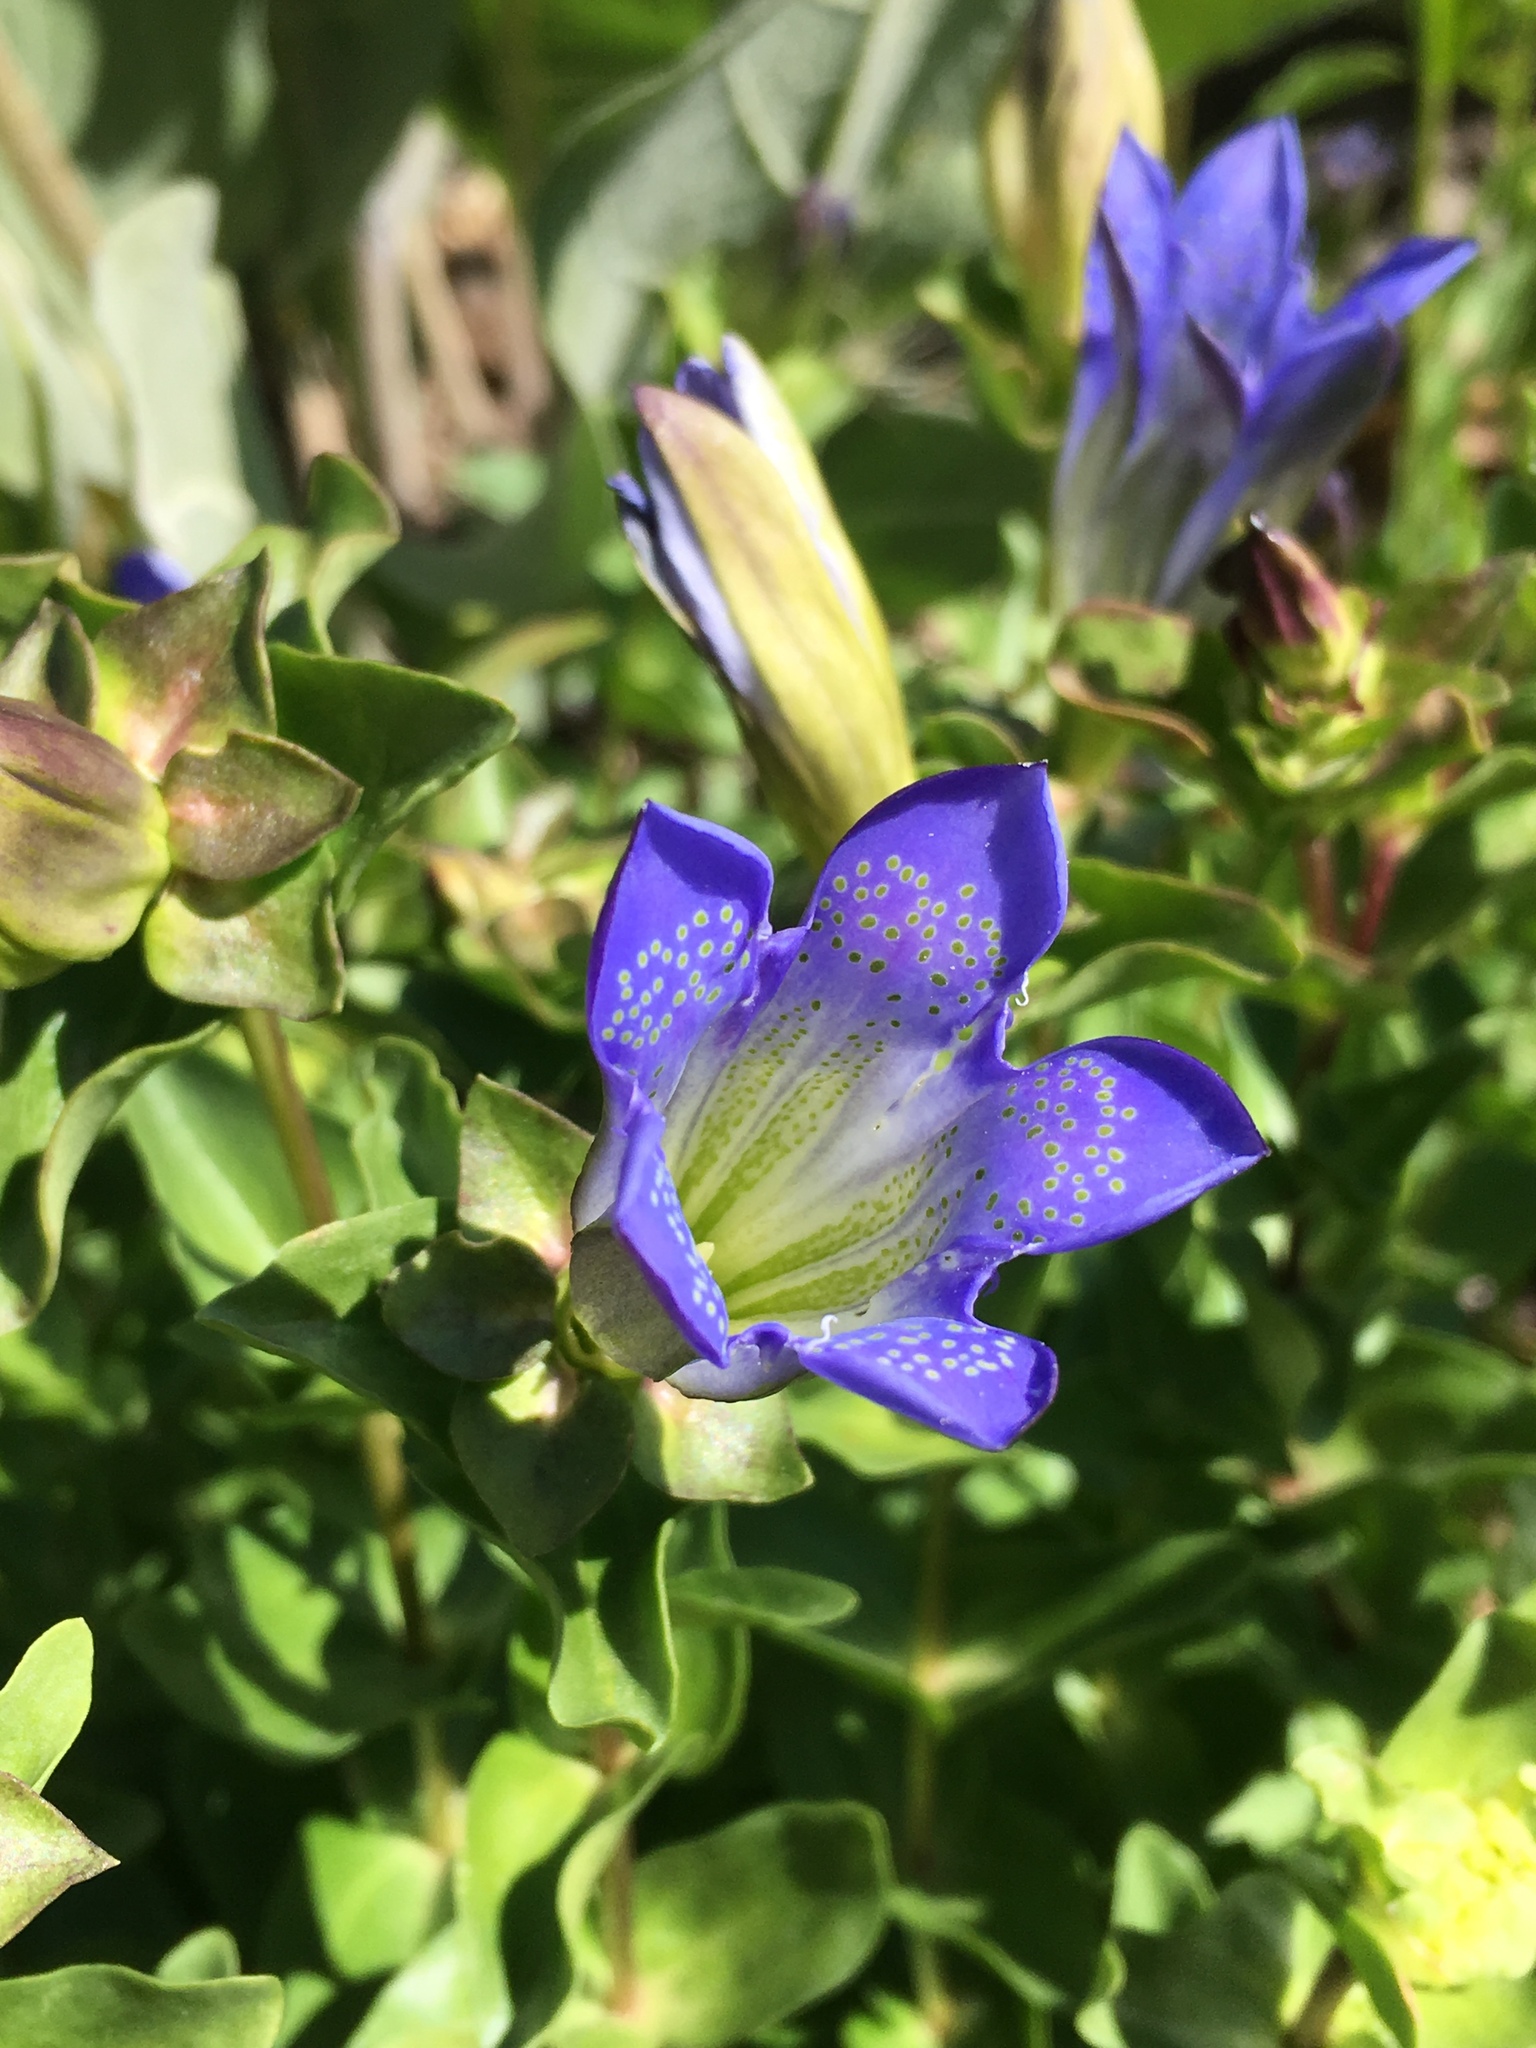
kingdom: Plantae
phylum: Tracheophyta
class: Magnoliopsida
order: Gentianales
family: Gentianaceae
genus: Gentiana
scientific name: Gentiana calycosa
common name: Rainier pleated gentian
